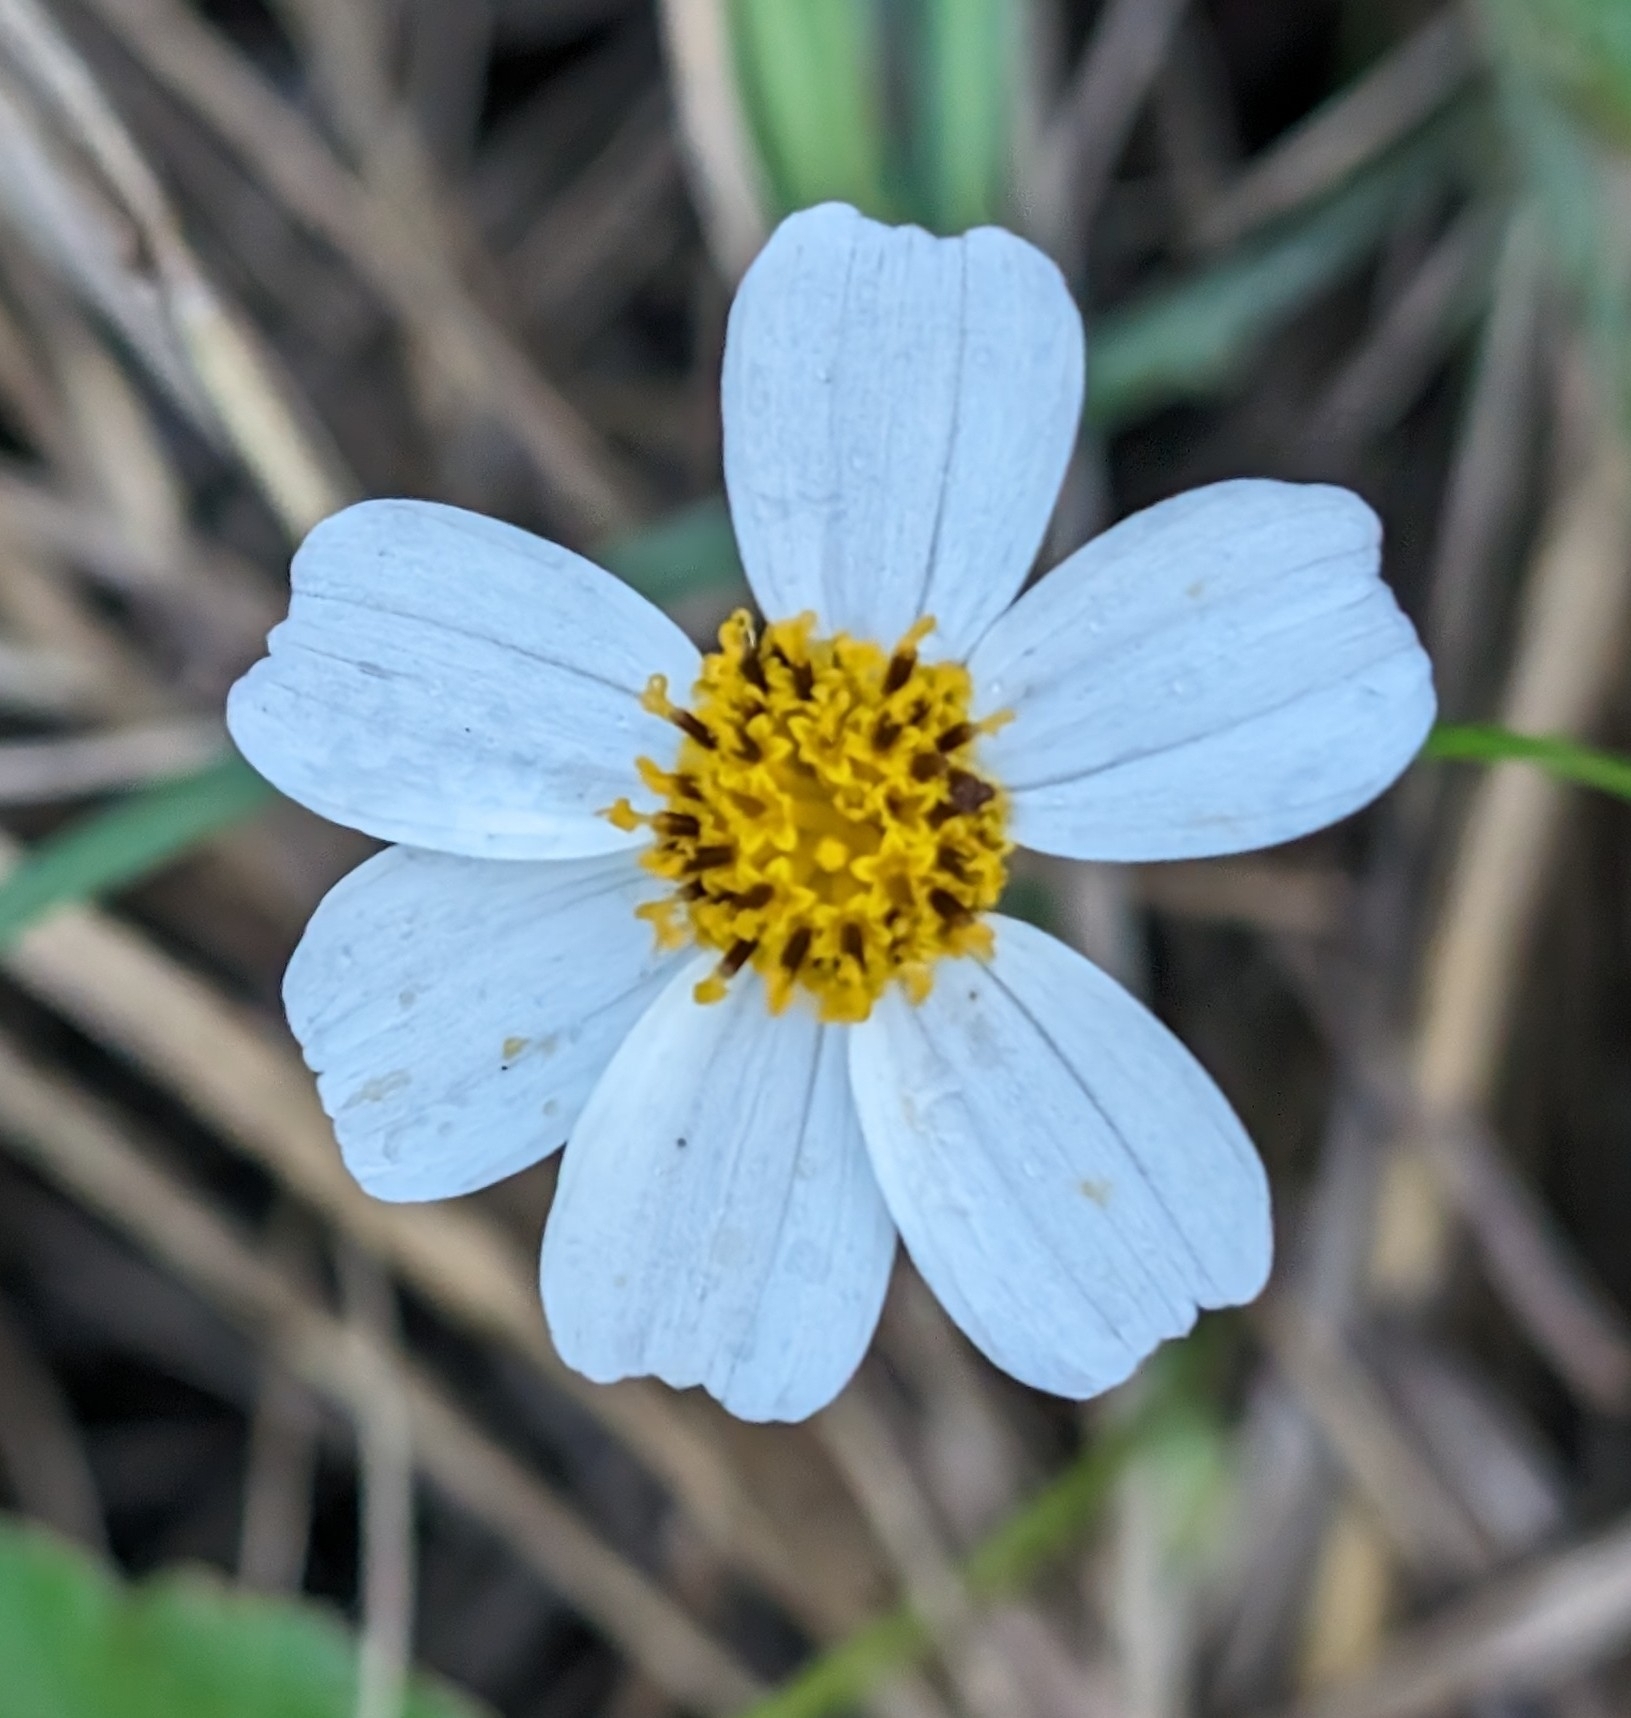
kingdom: Plantae
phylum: Tracheophyta
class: Magnoliopsida
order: Asterales
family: Asteraceae
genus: Bidens
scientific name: Bidens alba
